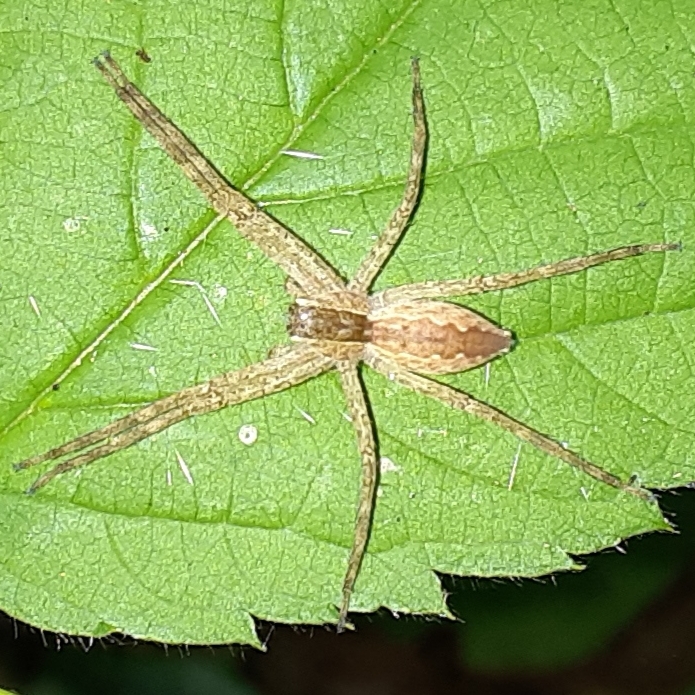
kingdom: Animalia
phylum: Arthropoda
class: Arachnida
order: Araneae
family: Pisauridae
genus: Pisaurina
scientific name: Pisaurina mira
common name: American nursery web spider
